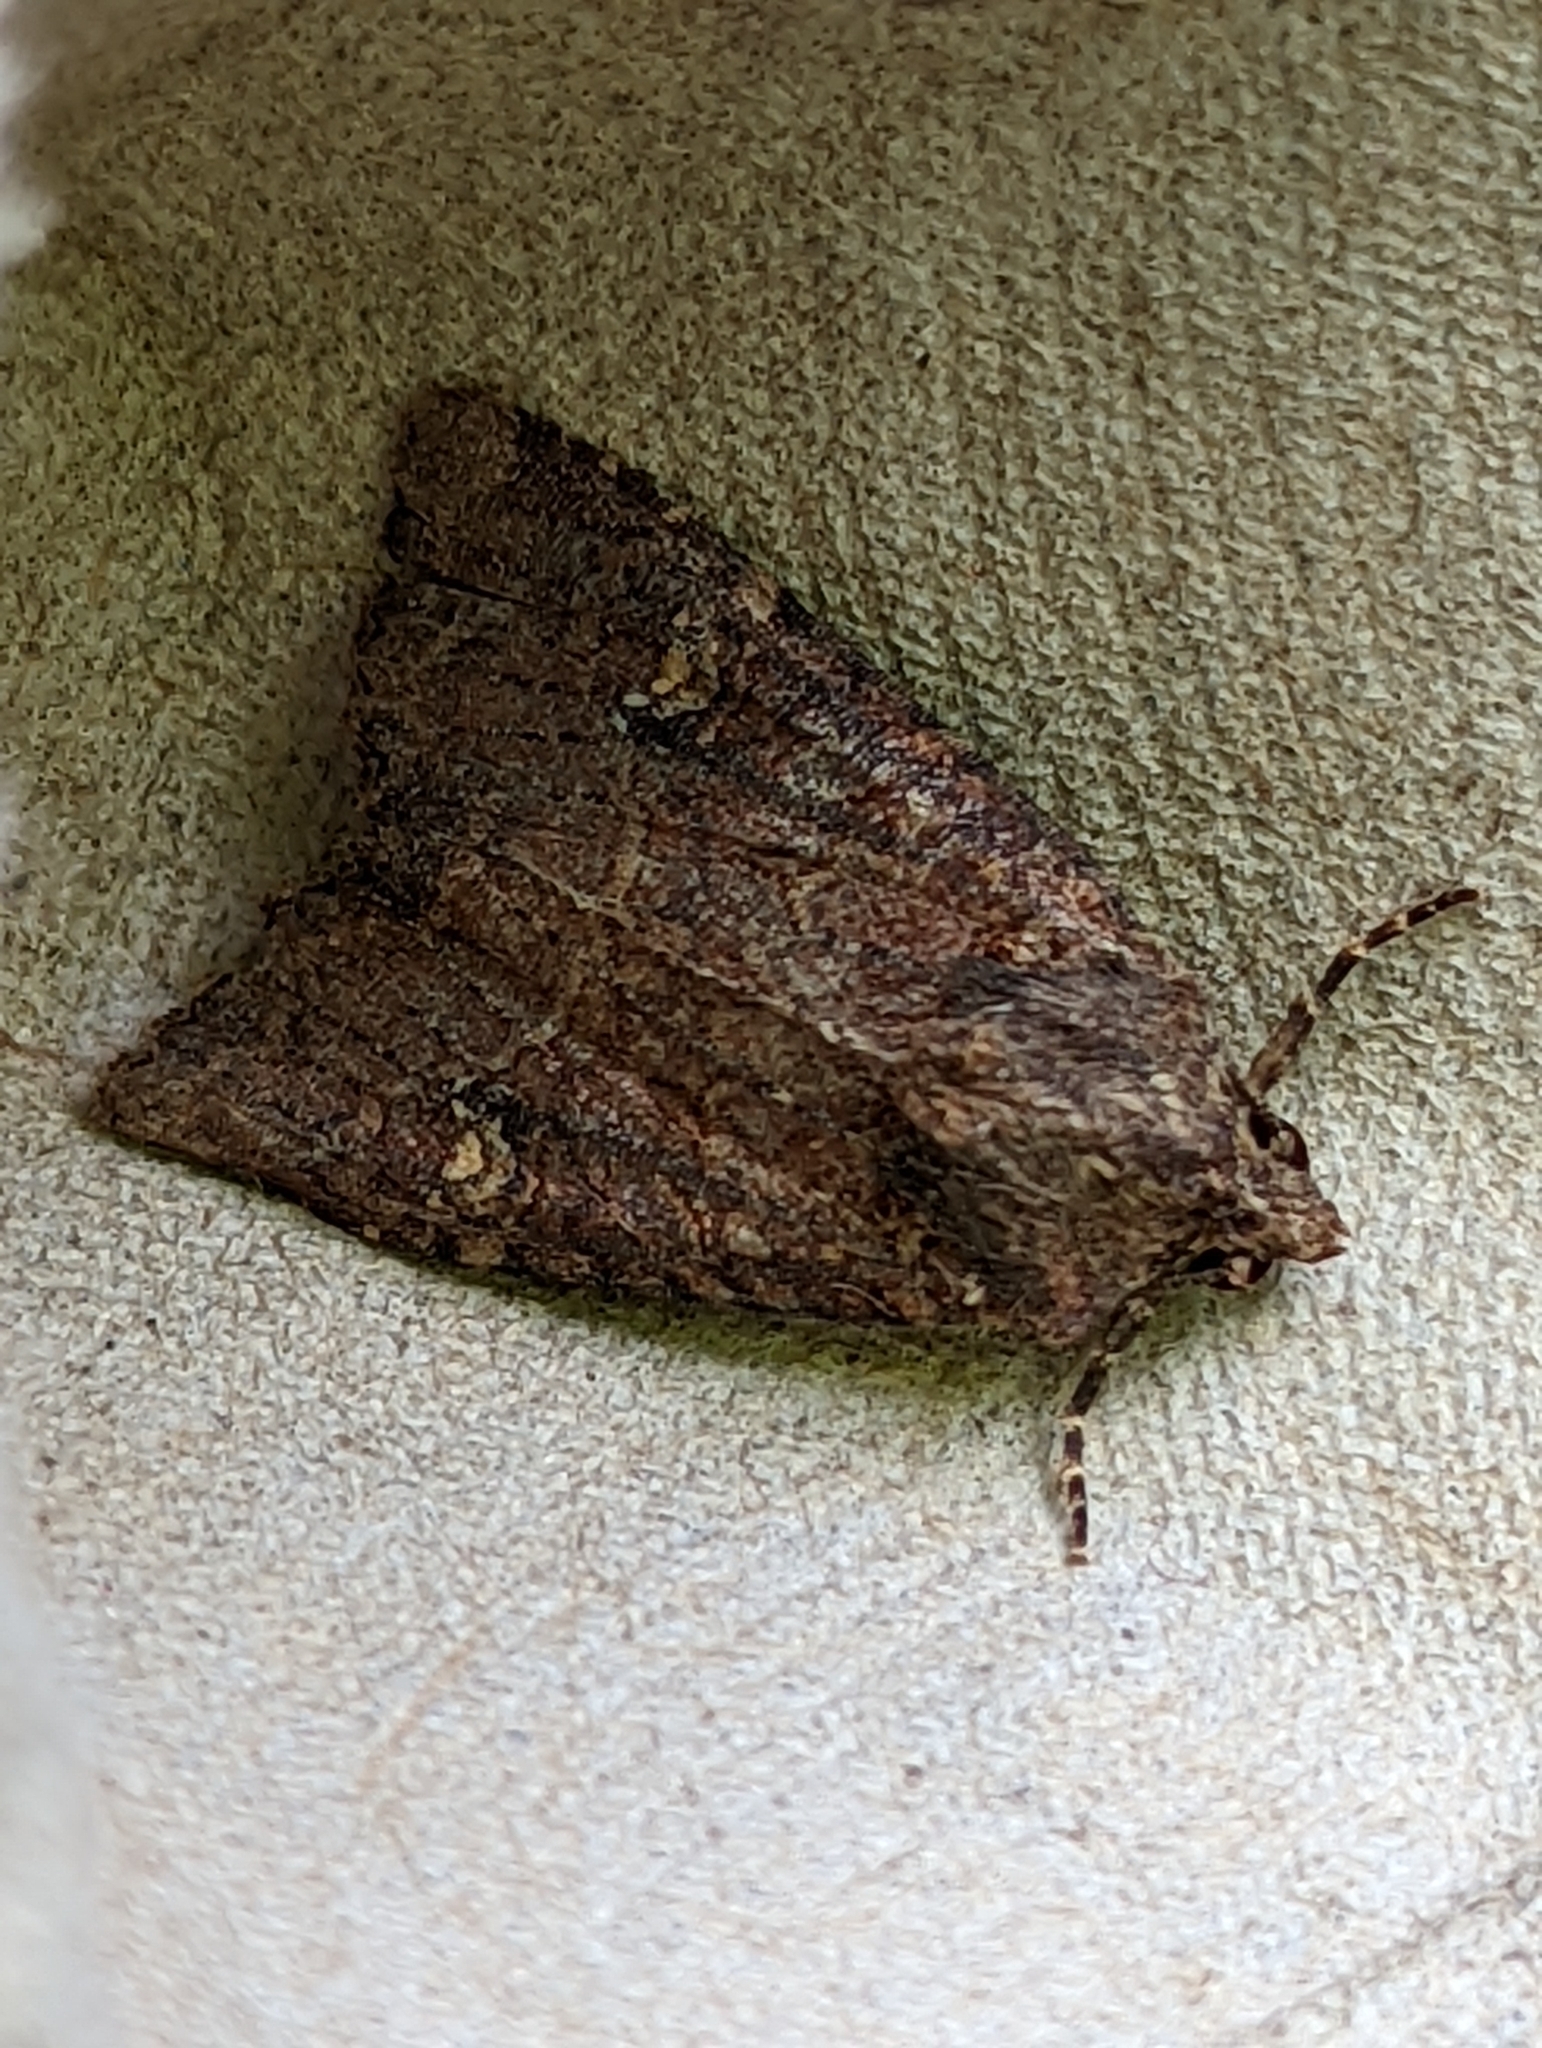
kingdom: Animalia
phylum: Arthropoda
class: Insecta
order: Lepidoptera
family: Noctuidae
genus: Mesapamea
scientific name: Mesapamea
